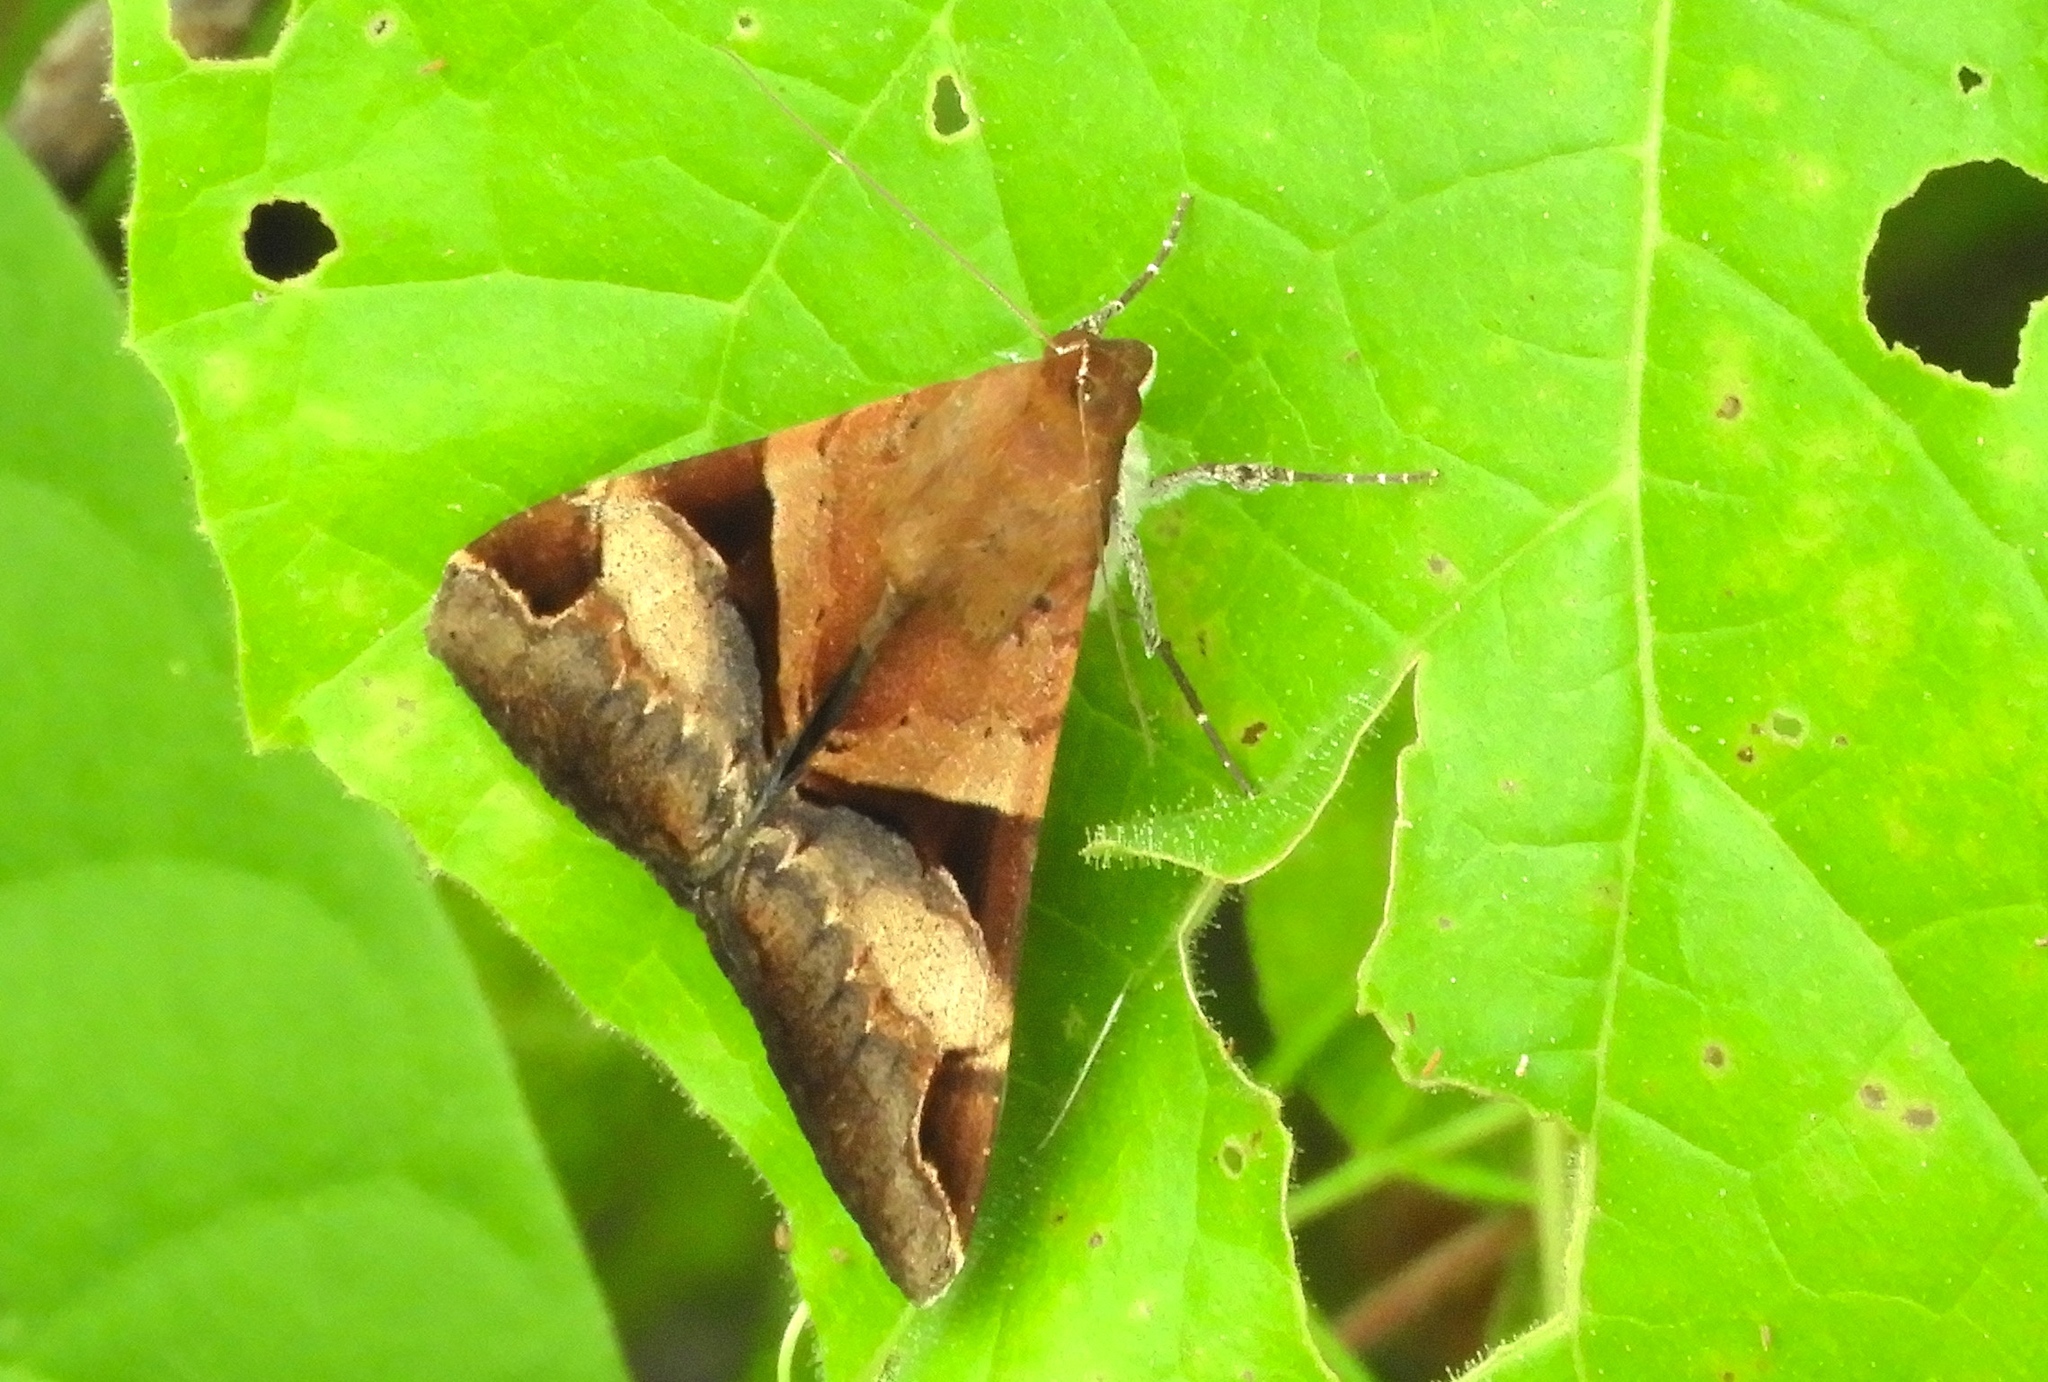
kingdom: Animalia
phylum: Arthropoda
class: Insecta
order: Lepidoptera
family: Erebidae
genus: Melipotis
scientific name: Melipotis fasciolaris
